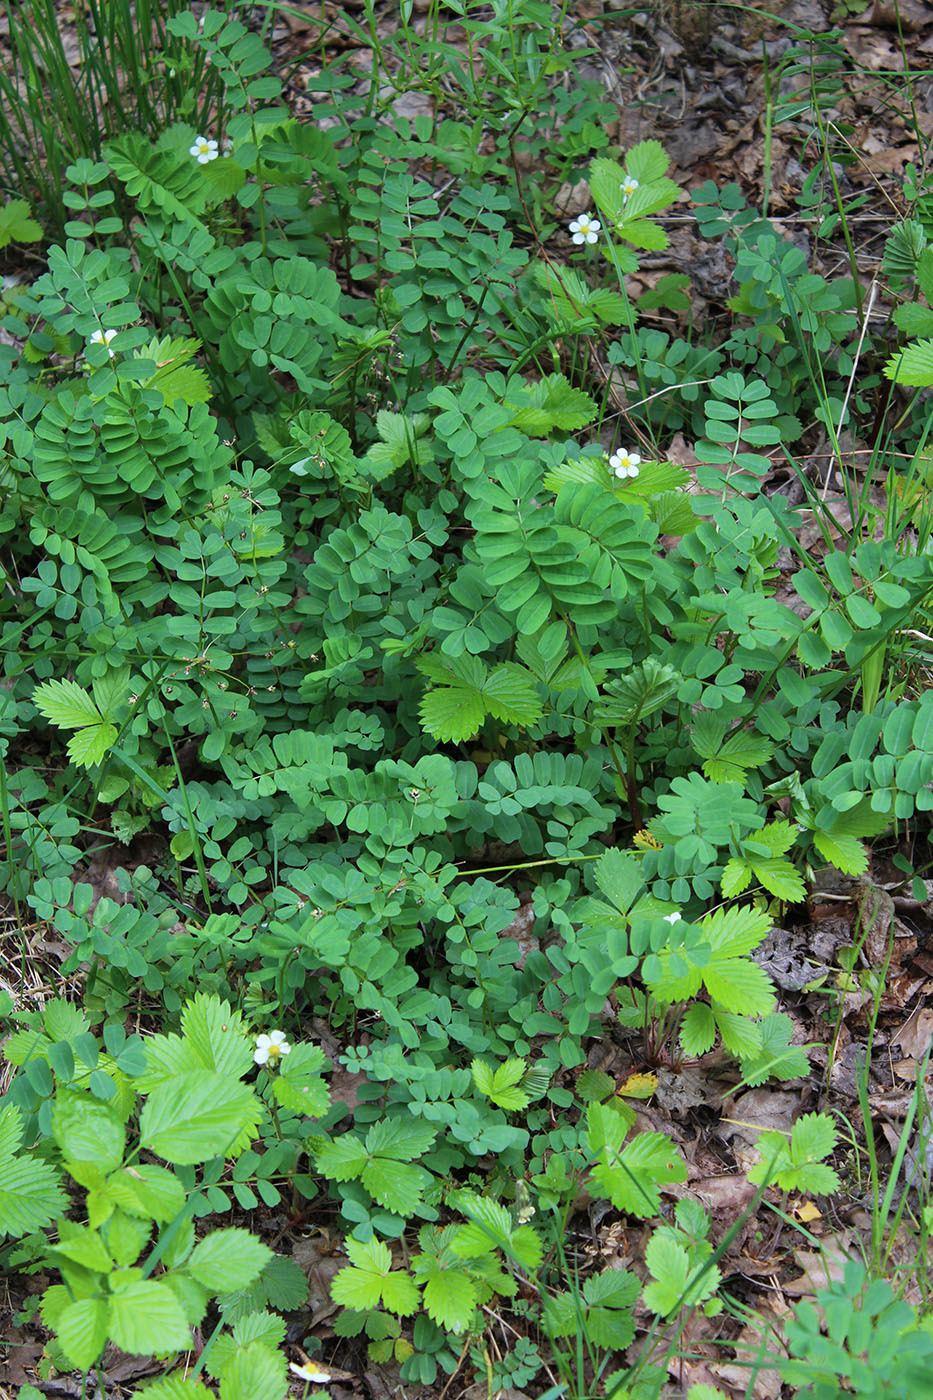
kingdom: Plantae
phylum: Tracheophyta
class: Magnoliopsida
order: Fabales
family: Fabaceae
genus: Coronilla
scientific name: Coronilla varia
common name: Crownvetch
